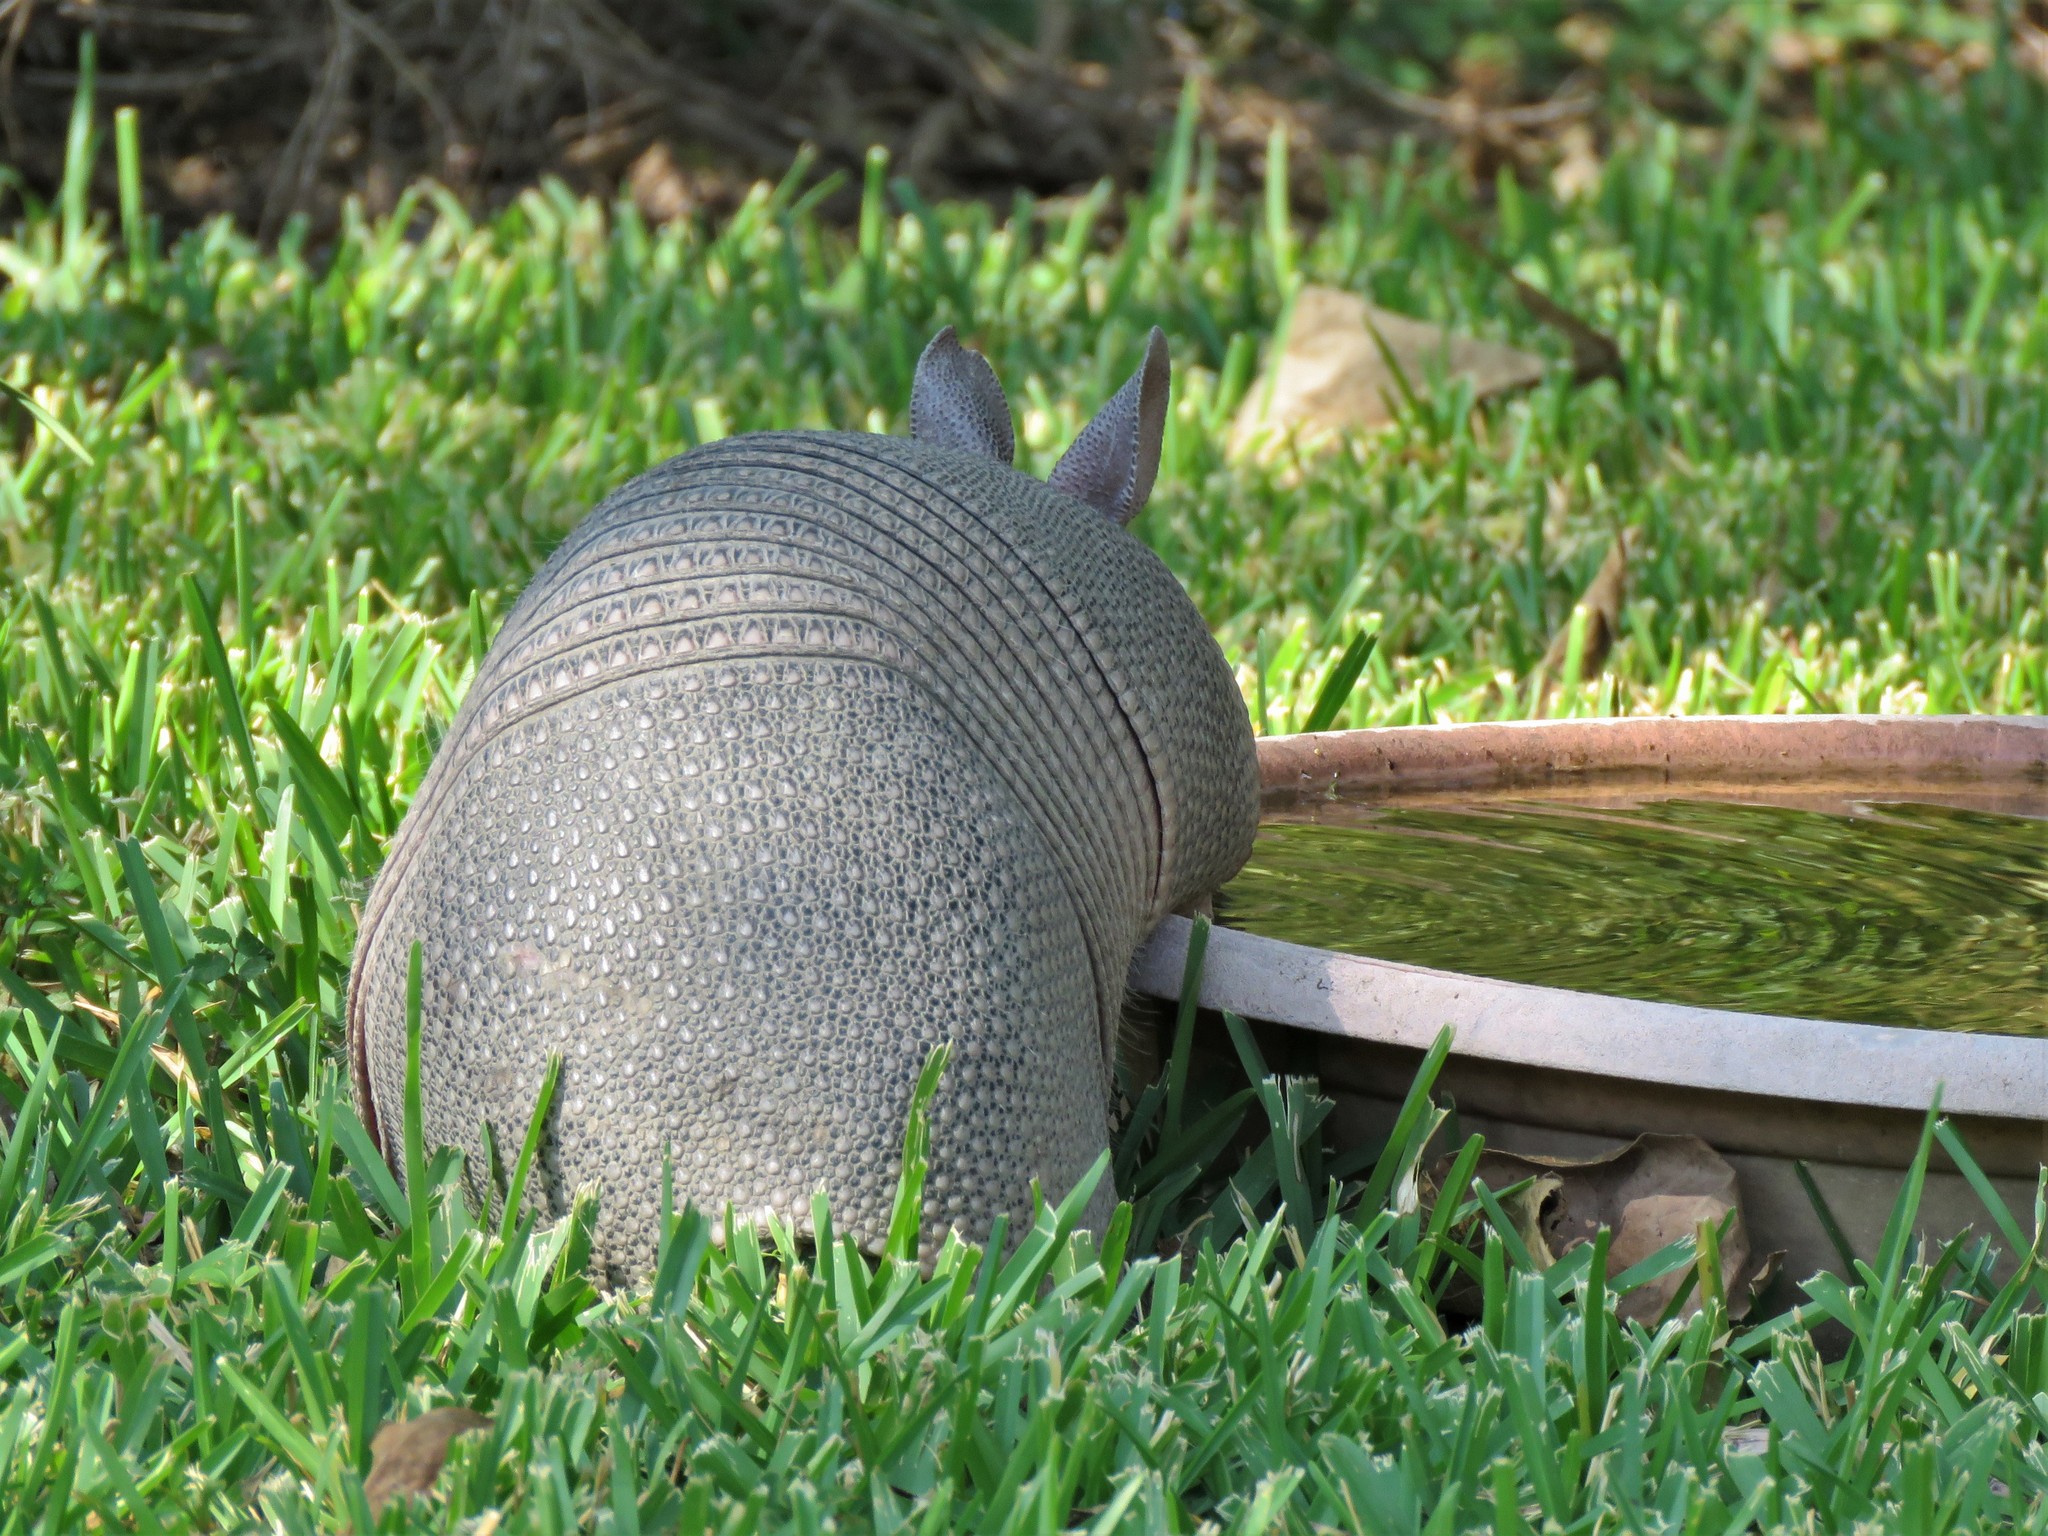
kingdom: Animalia
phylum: Chordata
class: Mammalia
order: Cingulata
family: Dasypodidae
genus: Dasypus
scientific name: Dasypus novemcinctus
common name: Nine-banded armadillo
